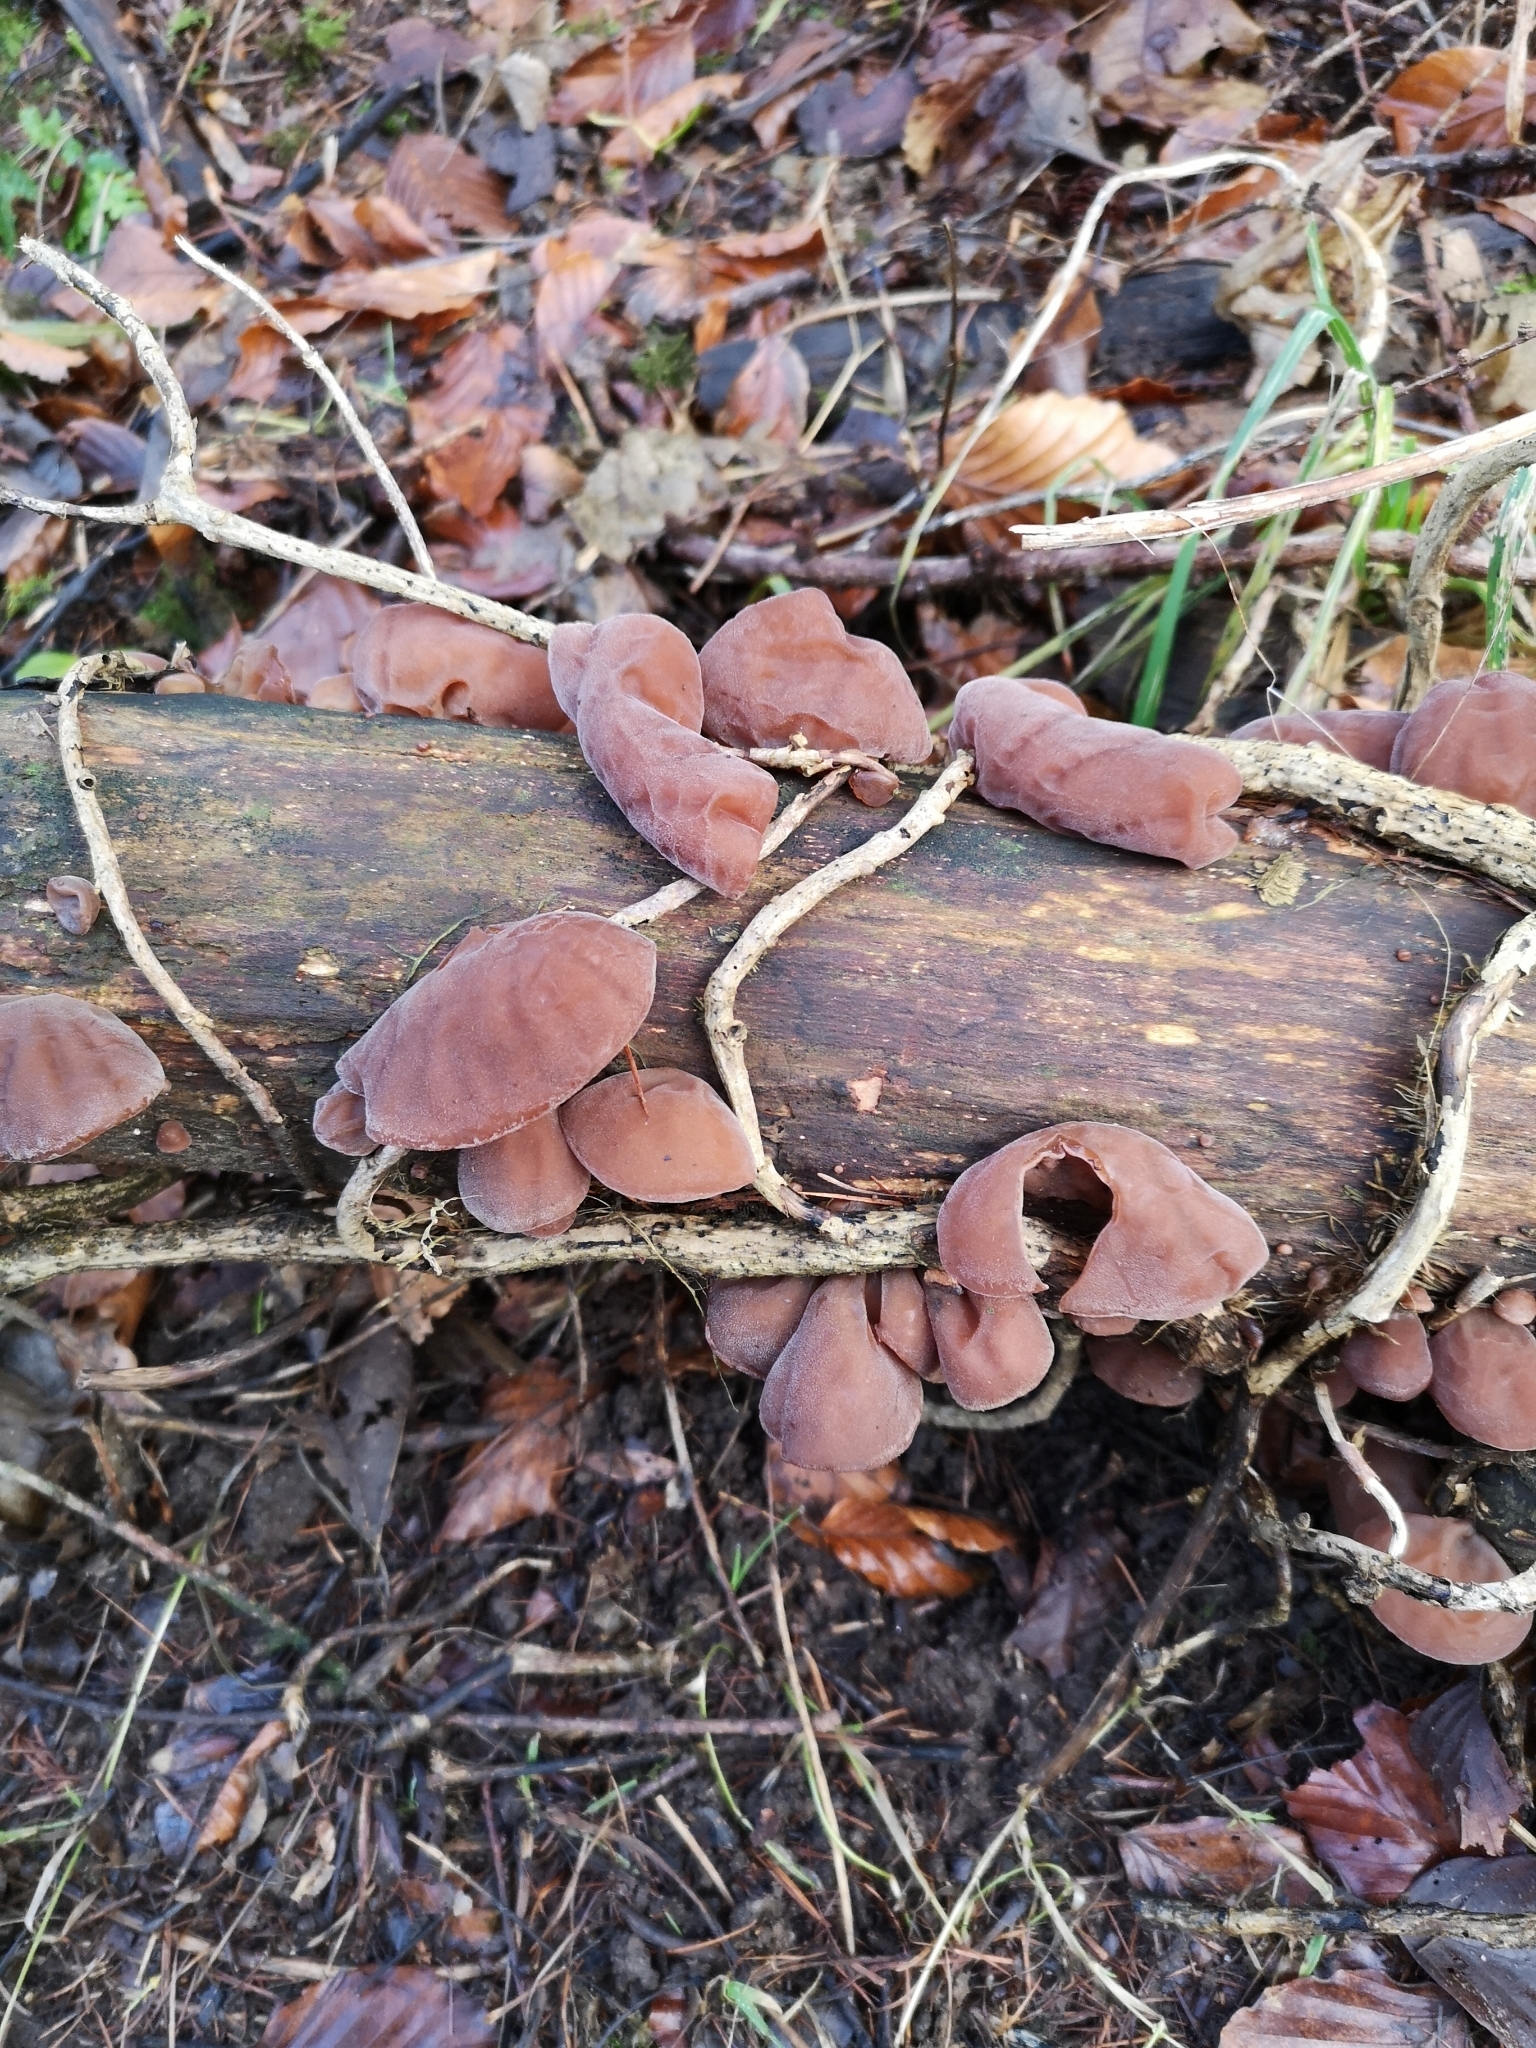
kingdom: Fungi
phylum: Basidiomycota
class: Agaricomycetes
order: Auriculariales
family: Auriculariaceae
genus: Auricularia
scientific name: Auricularia auricula-judae
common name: Jelly ear
